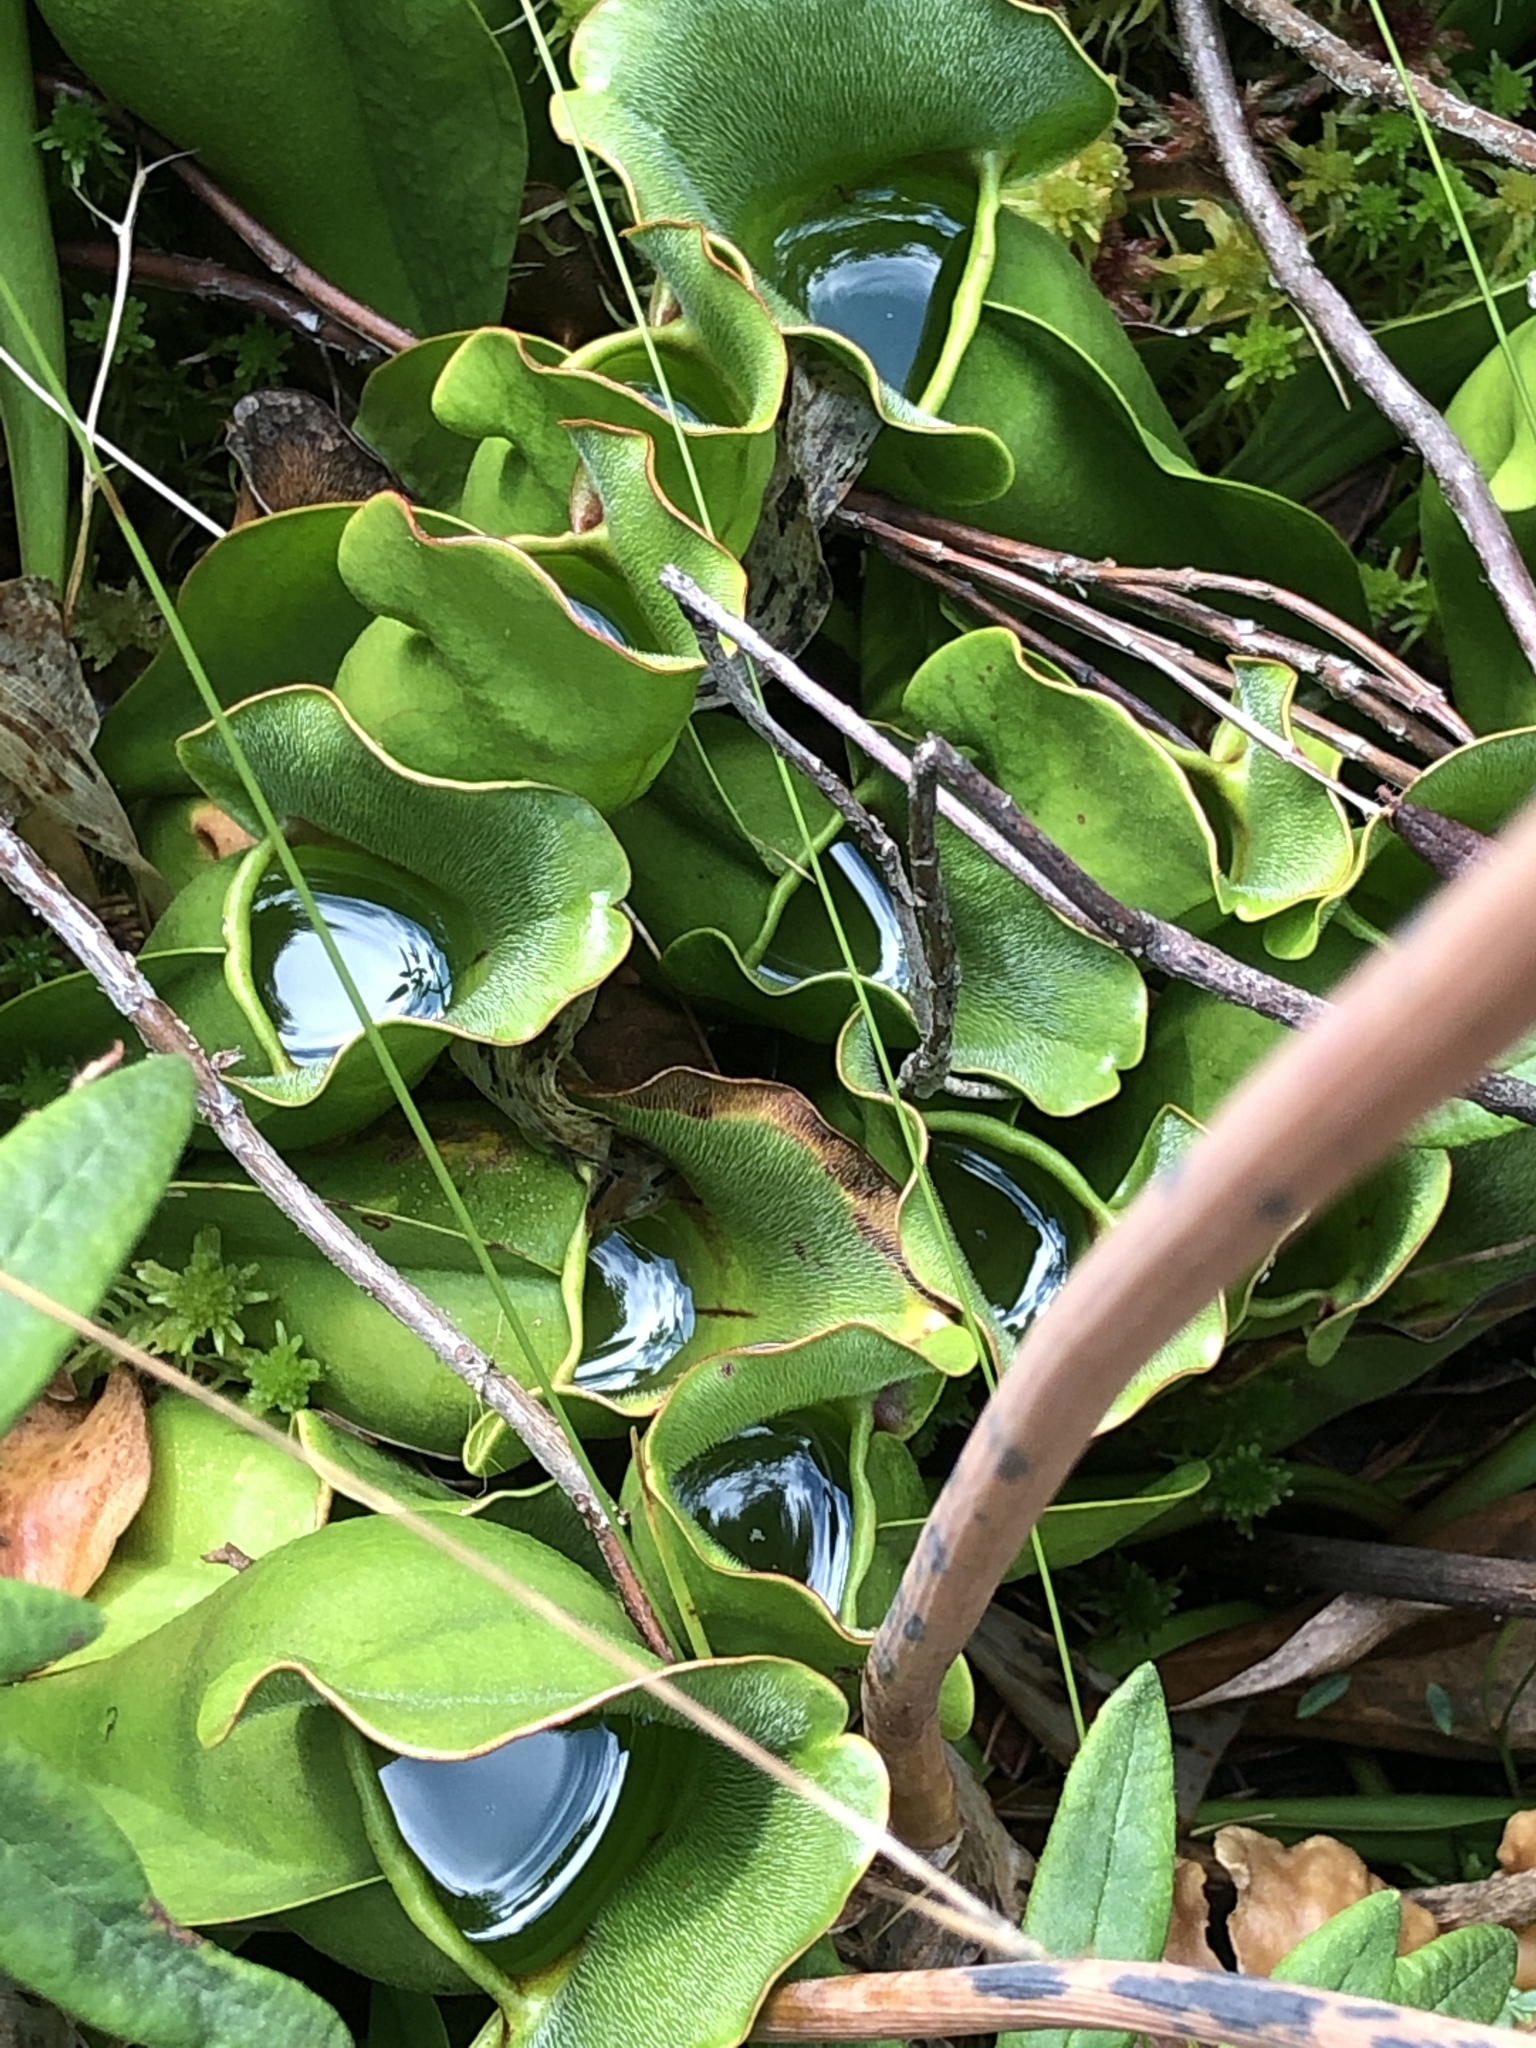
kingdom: Plantae
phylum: Tracheophyta
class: Magnoliopsida
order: Ericales
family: Sarraceniaceae
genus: Sarracenia
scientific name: Sarracenia purpurea
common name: Pitcherplant
